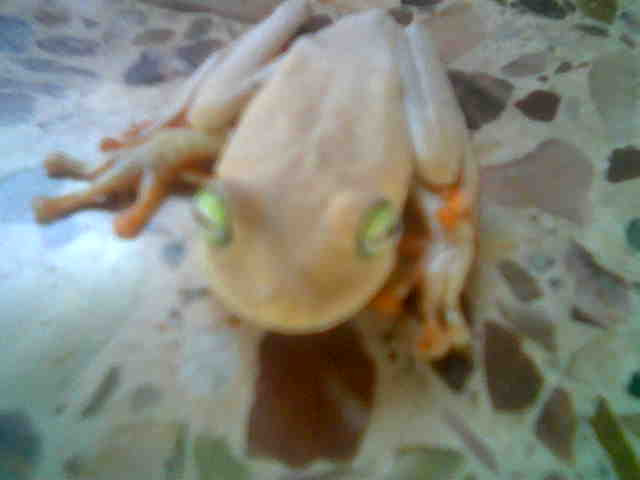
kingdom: Animalia
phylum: Chordata
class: Amphibia
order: Anura
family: Hylidae
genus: Boana
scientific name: Boana platanera
